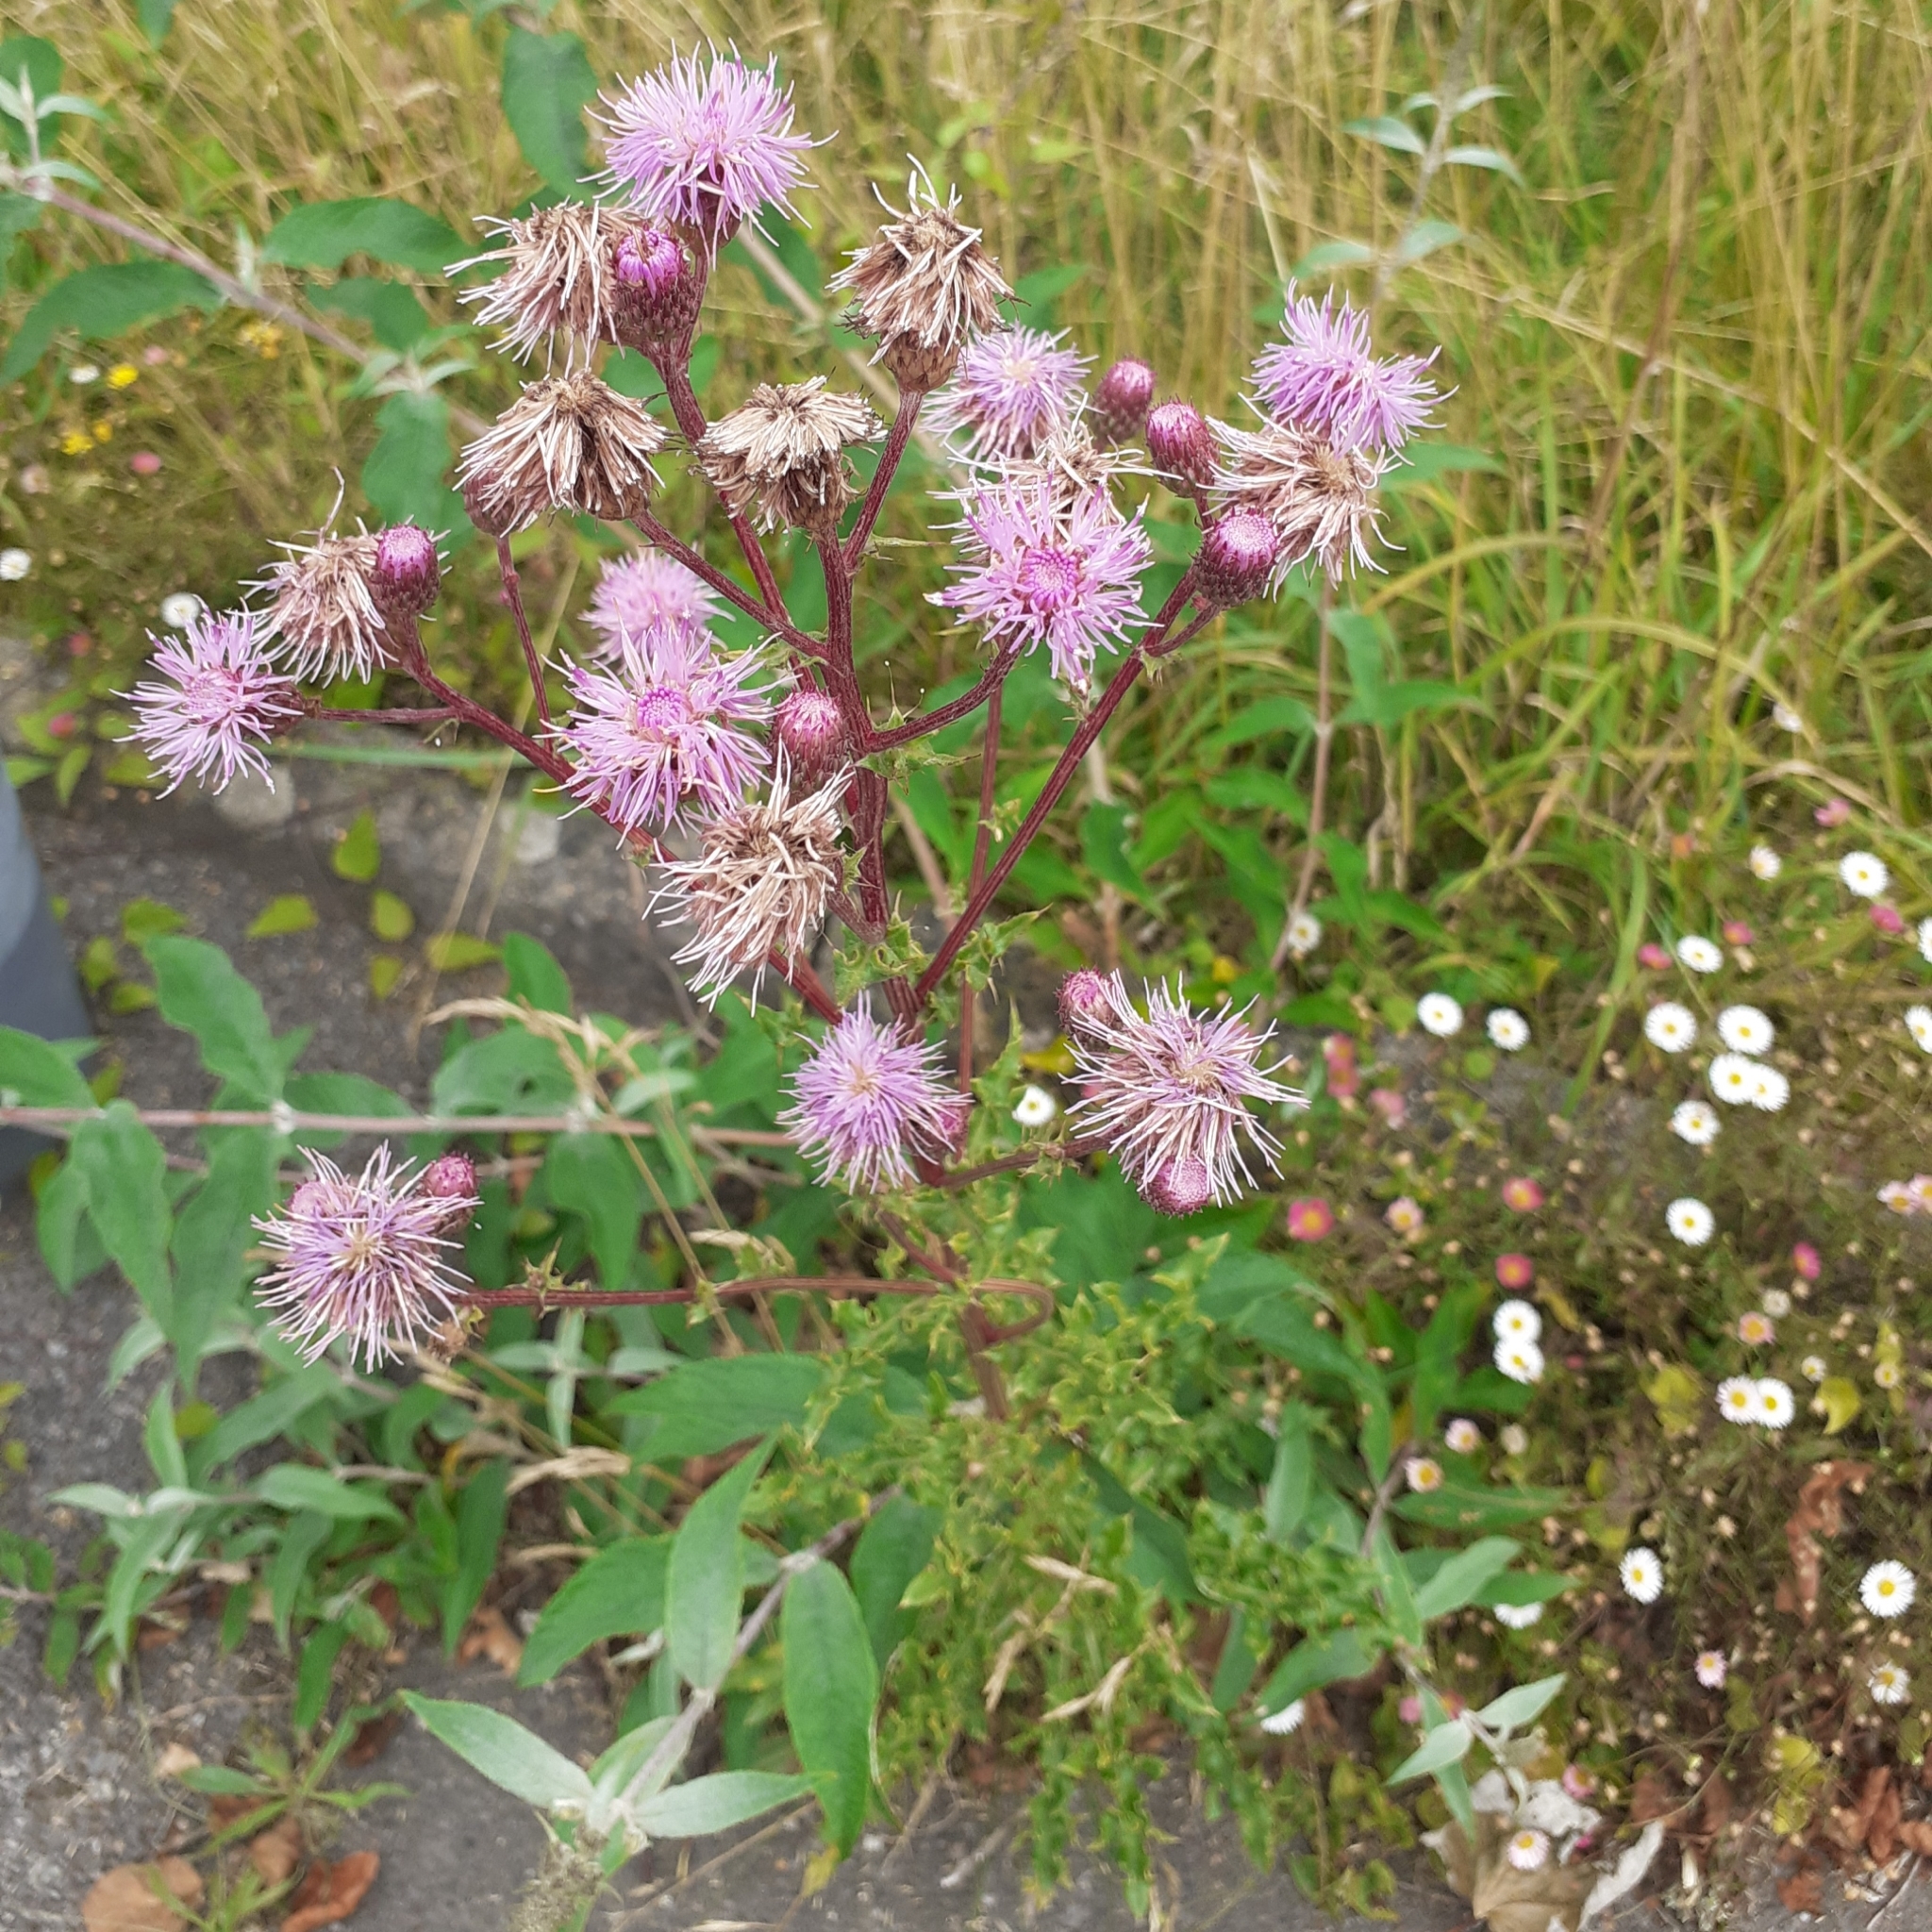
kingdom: Plantae
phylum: Tracheophyta
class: Magnoliopsida
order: Asterales
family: Asteraceae
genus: Cirsium
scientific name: Cirsium arvense
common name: Creeping thistle
